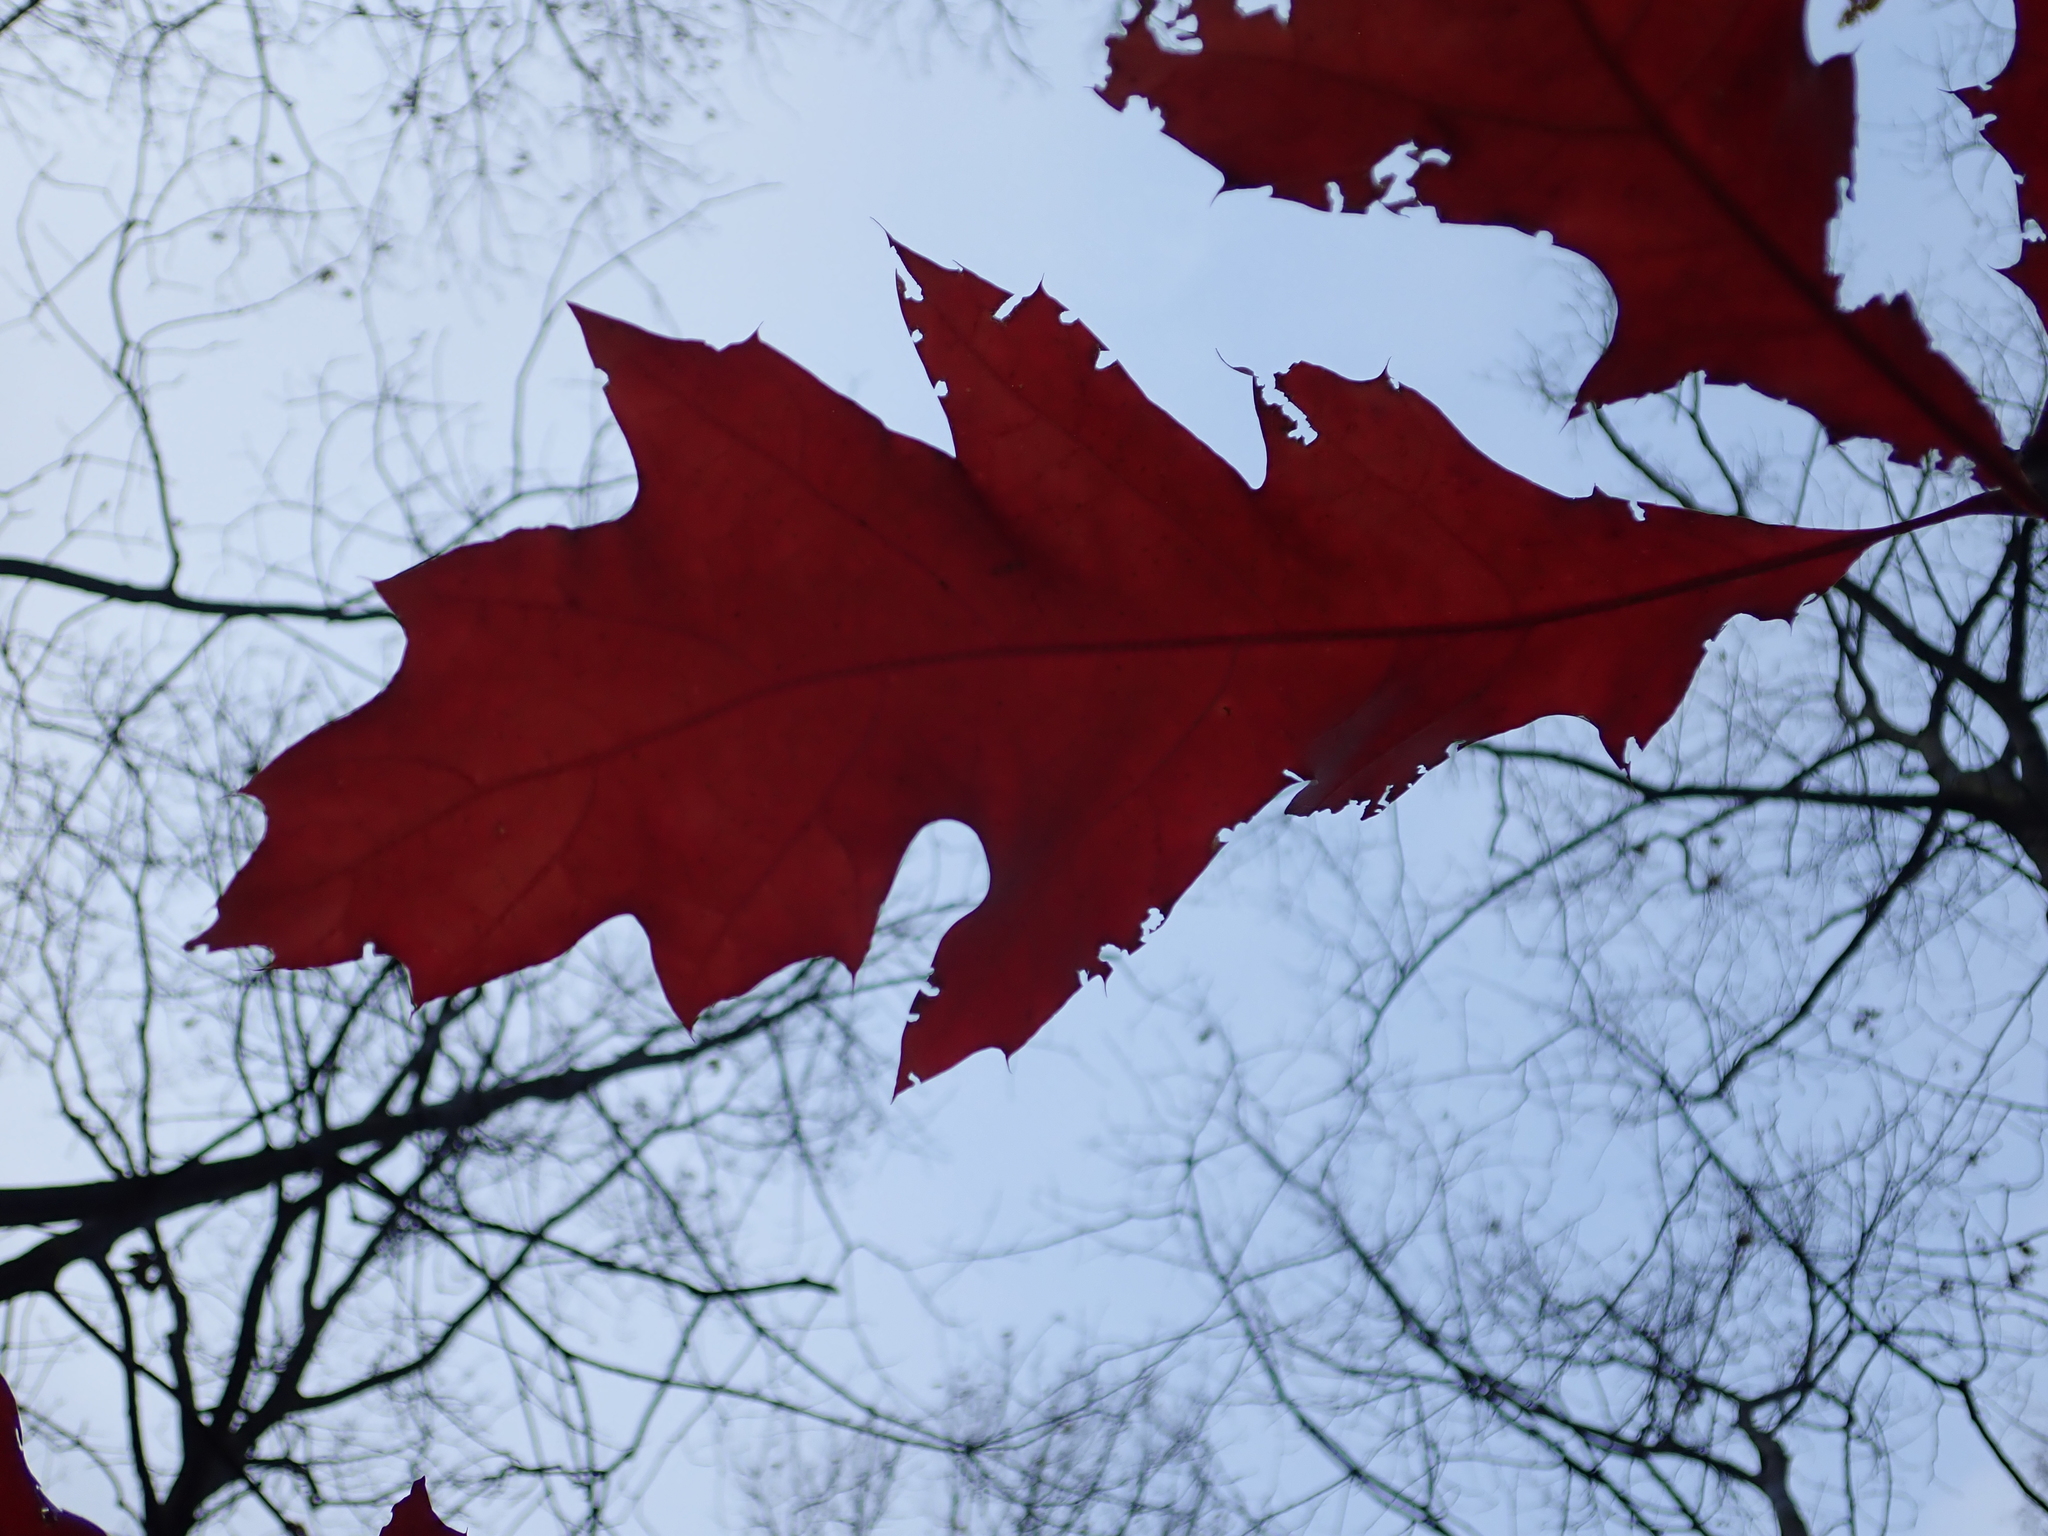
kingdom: Plantae
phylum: Tracheophyta
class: Magnoliopsida
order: Fagales
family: Fagaceae
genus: Quercus
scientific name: Quercus rubra
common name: Red oak
